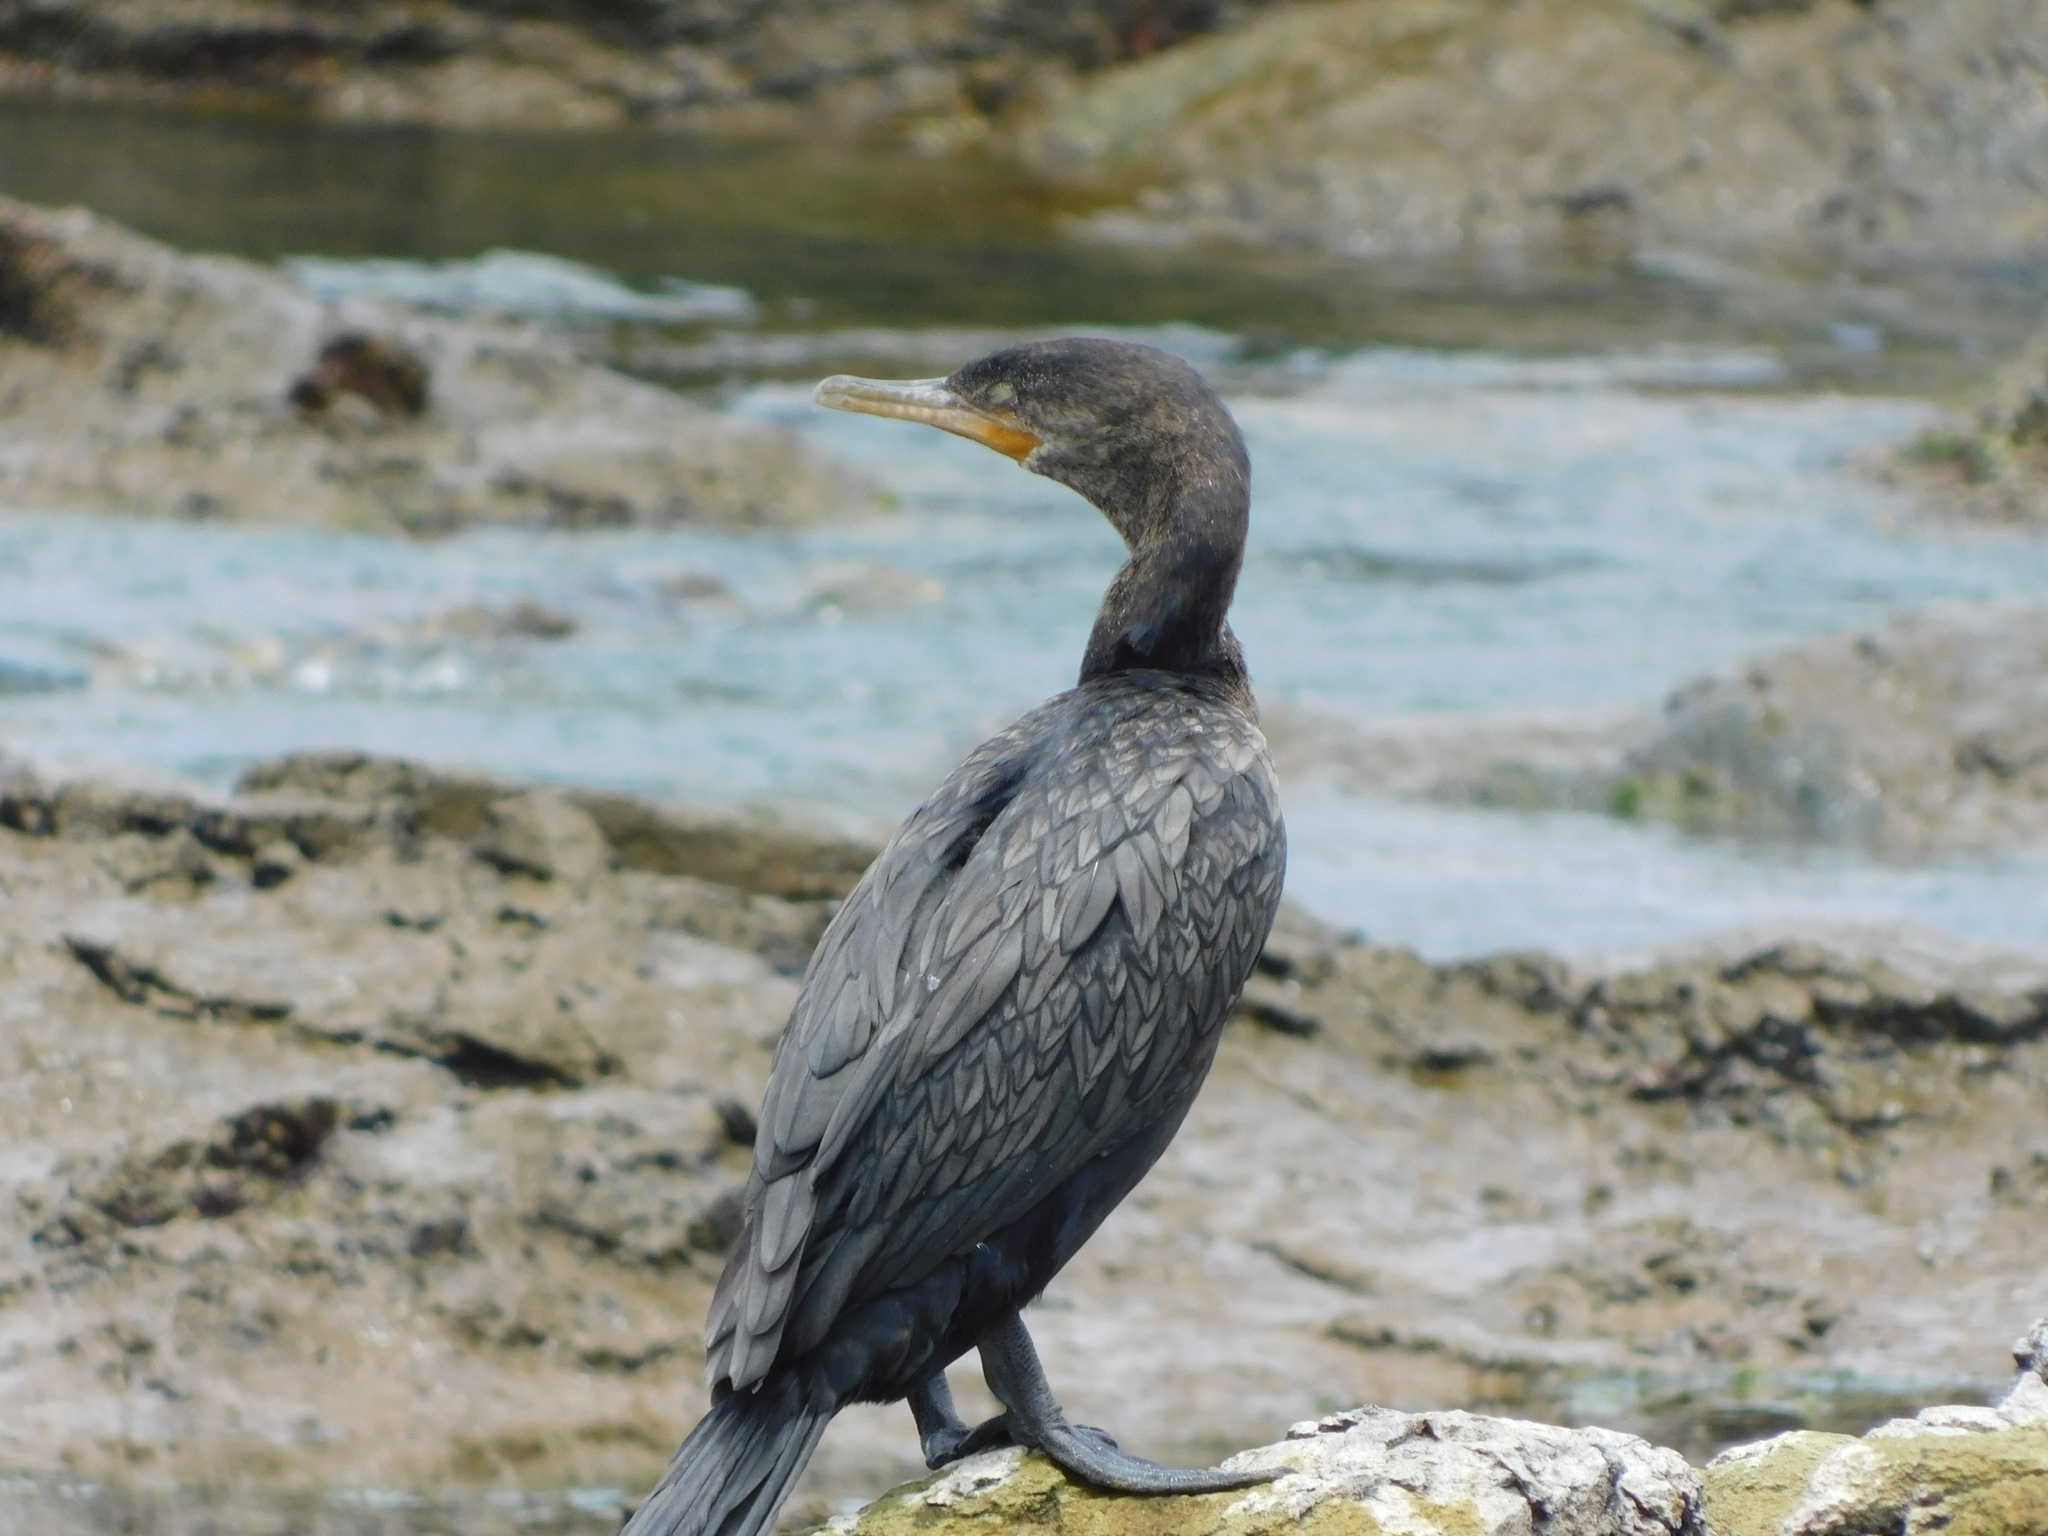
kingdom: Animalia
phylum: Chordata
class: Aves
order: Suliformes
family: Phalacrocoracidae
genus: Phalacrocorax
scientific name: Phalacrocorax brasilianus
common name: Neotropic cormorant
